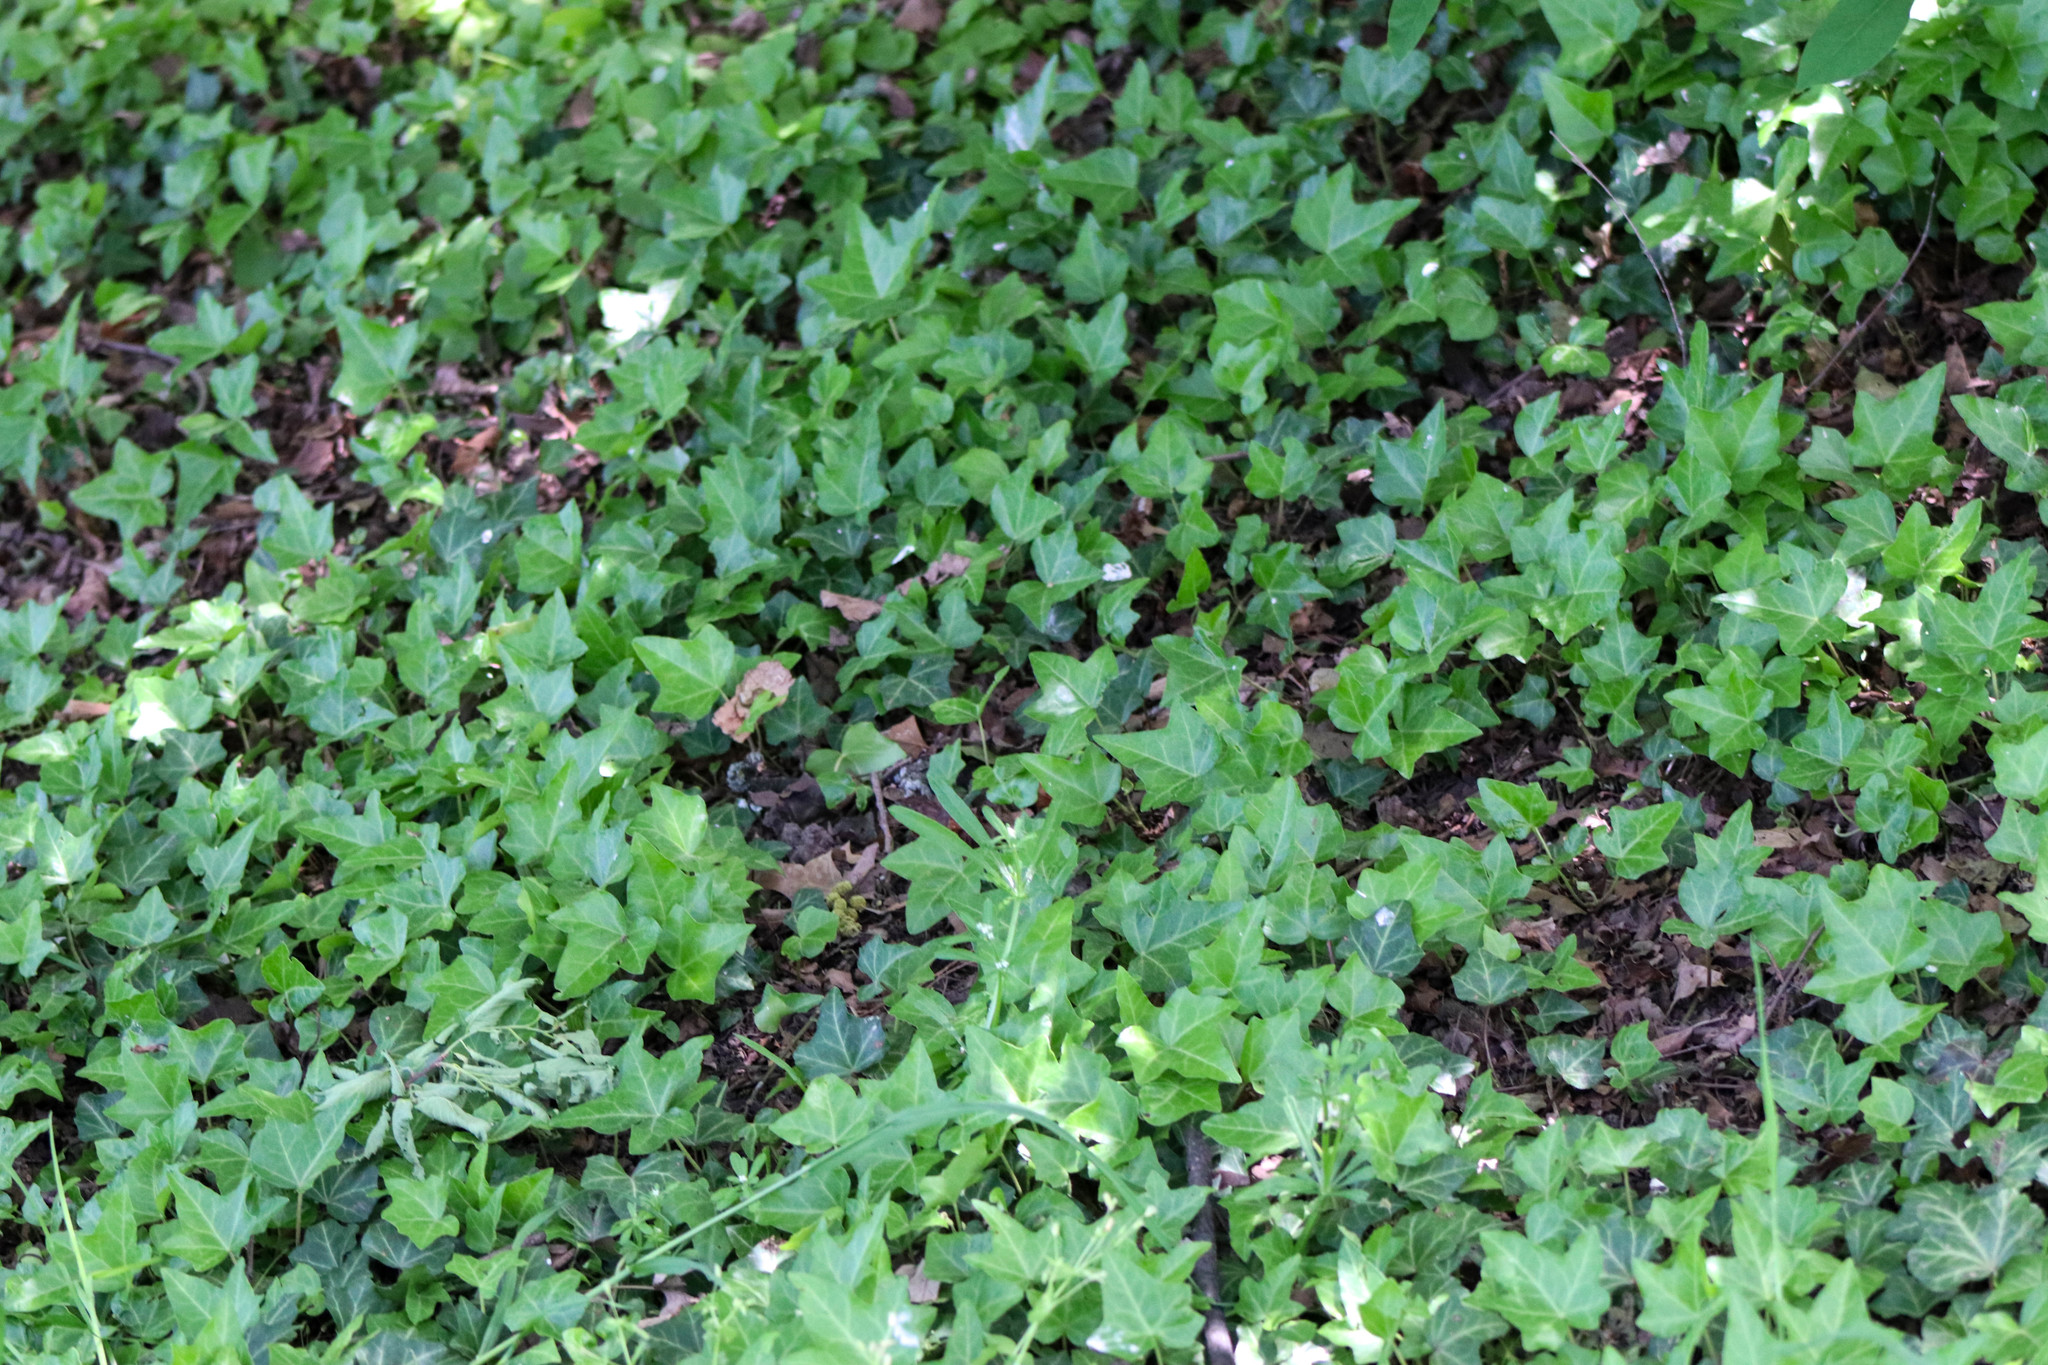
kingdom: Plantae
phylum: Tracheophyta
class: Magnoliopsida
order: Apiales
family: Araliaceae
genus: Hedera
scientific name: Hedera helix
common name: Ivy
